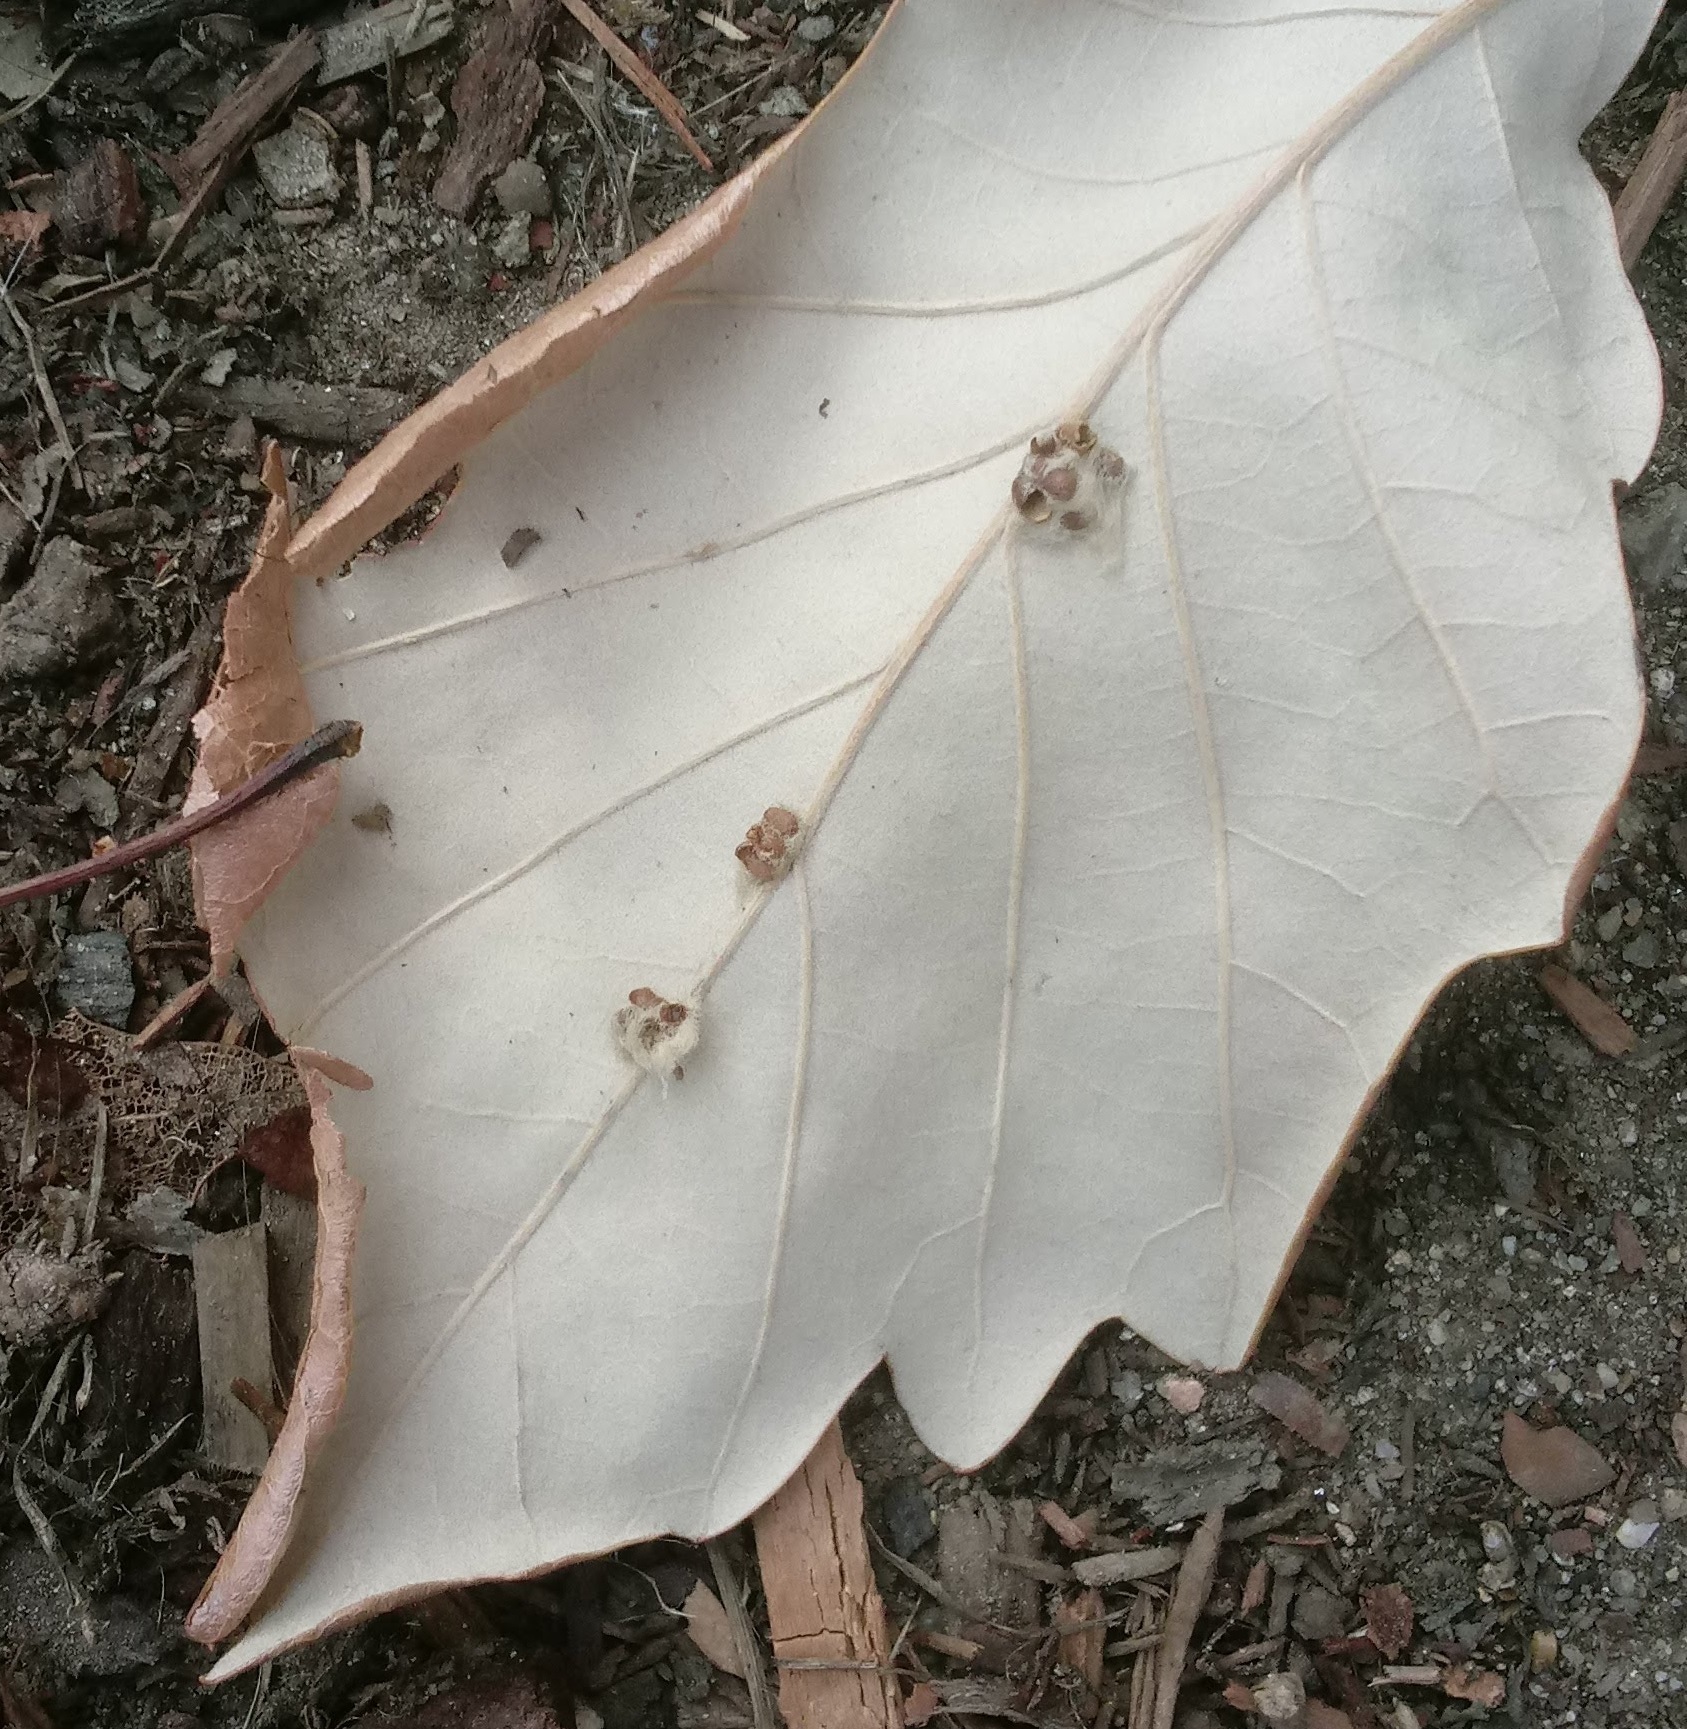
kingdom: Animalia
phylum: Arthropoda
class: Insecta
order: Hymenoptera
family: Cynipidae
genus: Andricus
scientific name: Andricus Druon ignotum
